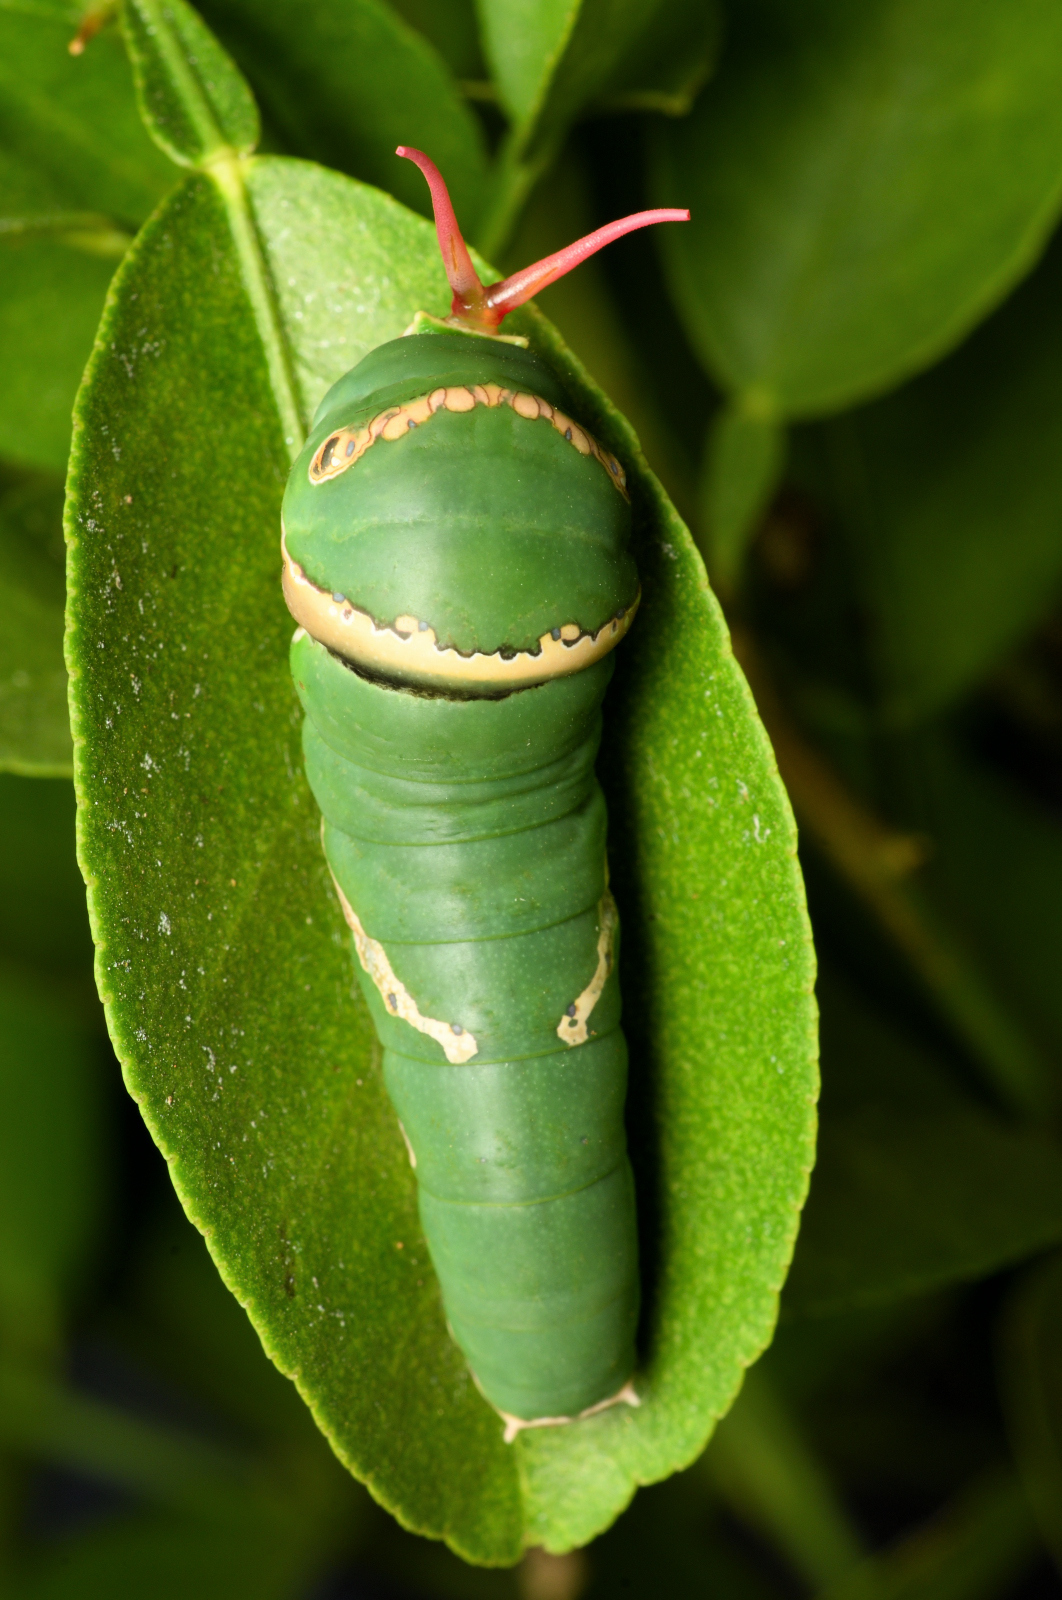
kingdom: Animalia
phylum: Arthropoda
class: Insecta
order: Lepidoptera
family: Papilionidae
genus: Papilio
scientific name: Papilio polytes
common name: Common mormon
